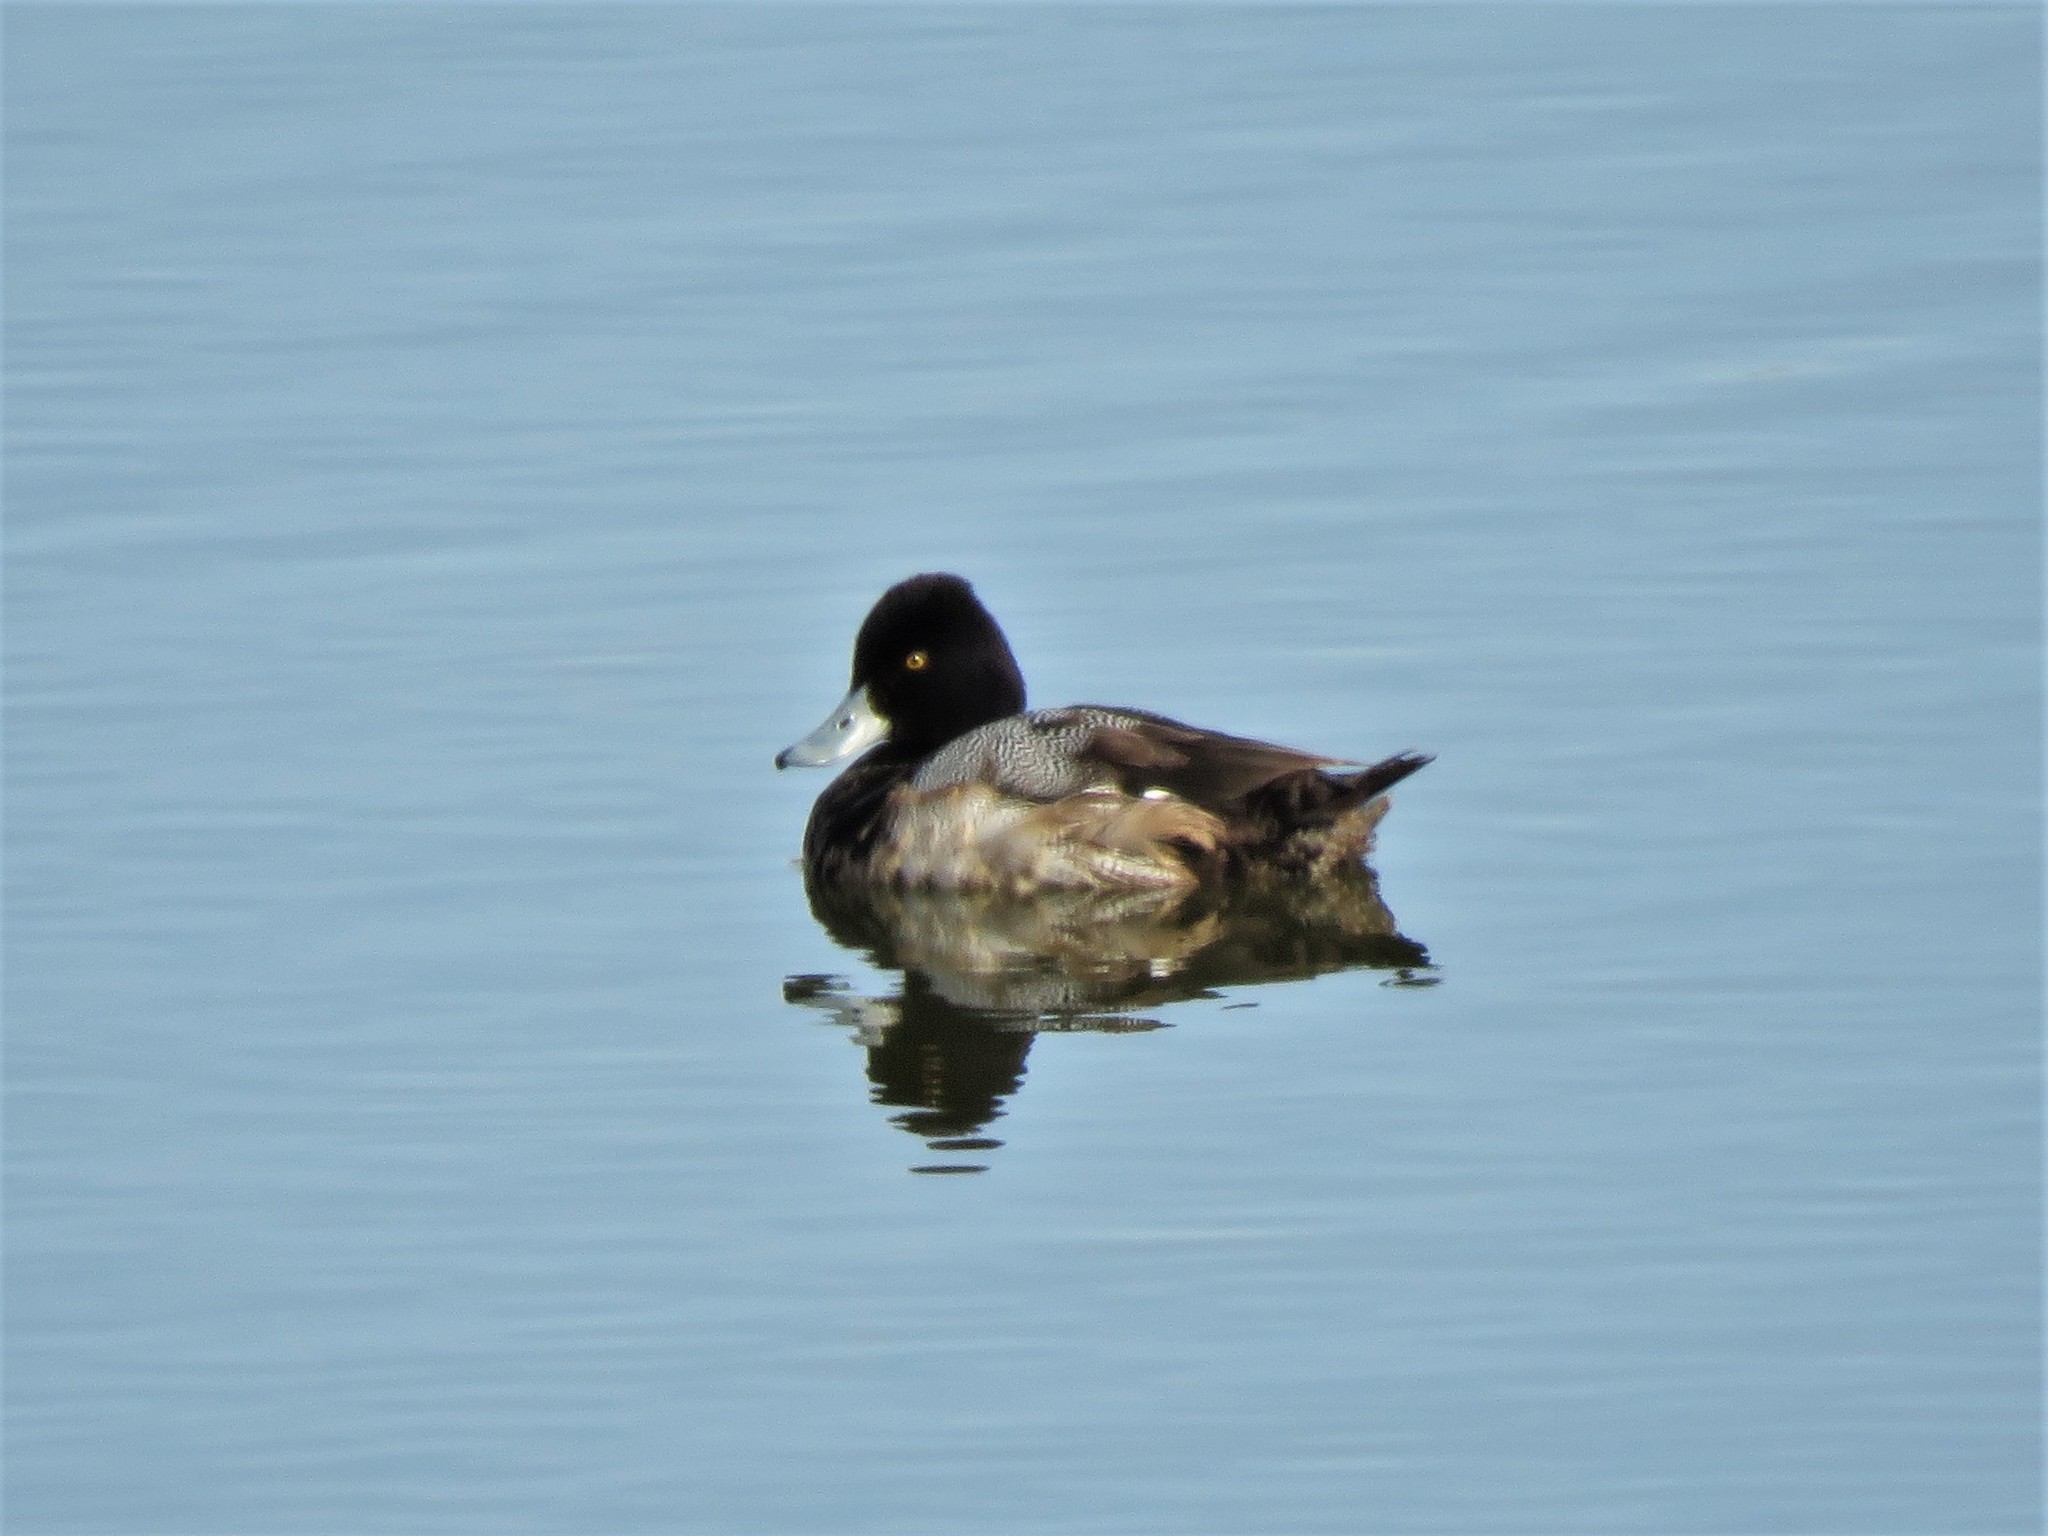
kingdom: Animalia
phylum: Chordata
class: Aves
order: Anseriformes
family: Anatidae
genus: Aythya
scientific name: Aythya affinis
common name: Lesser scaup
